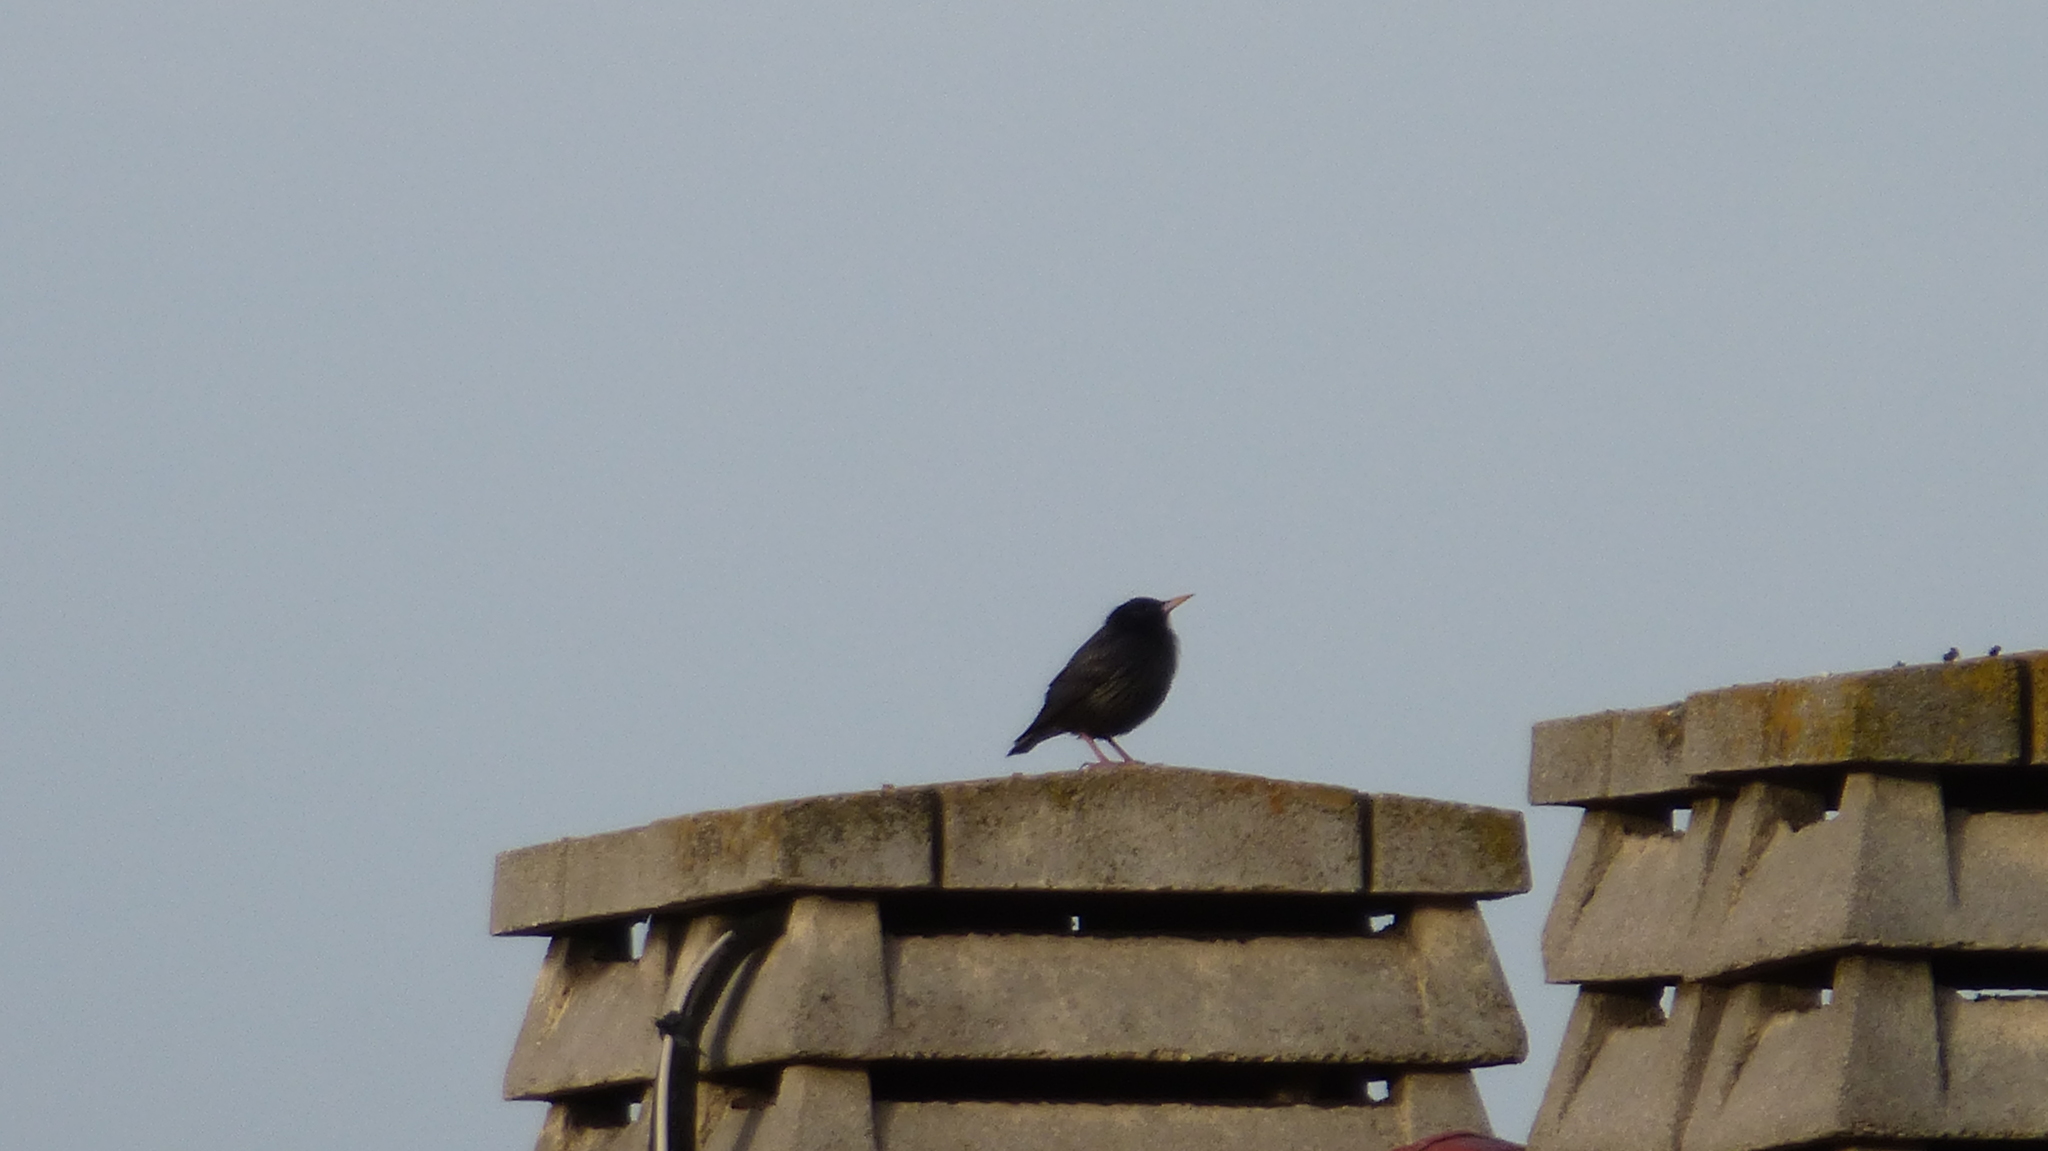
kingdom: Animalia
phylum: Chordata
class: Aves
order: Passeriformes
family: Sturnidae
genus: Sturnus
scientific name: Sturnus unicolor
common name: Spotless starling
